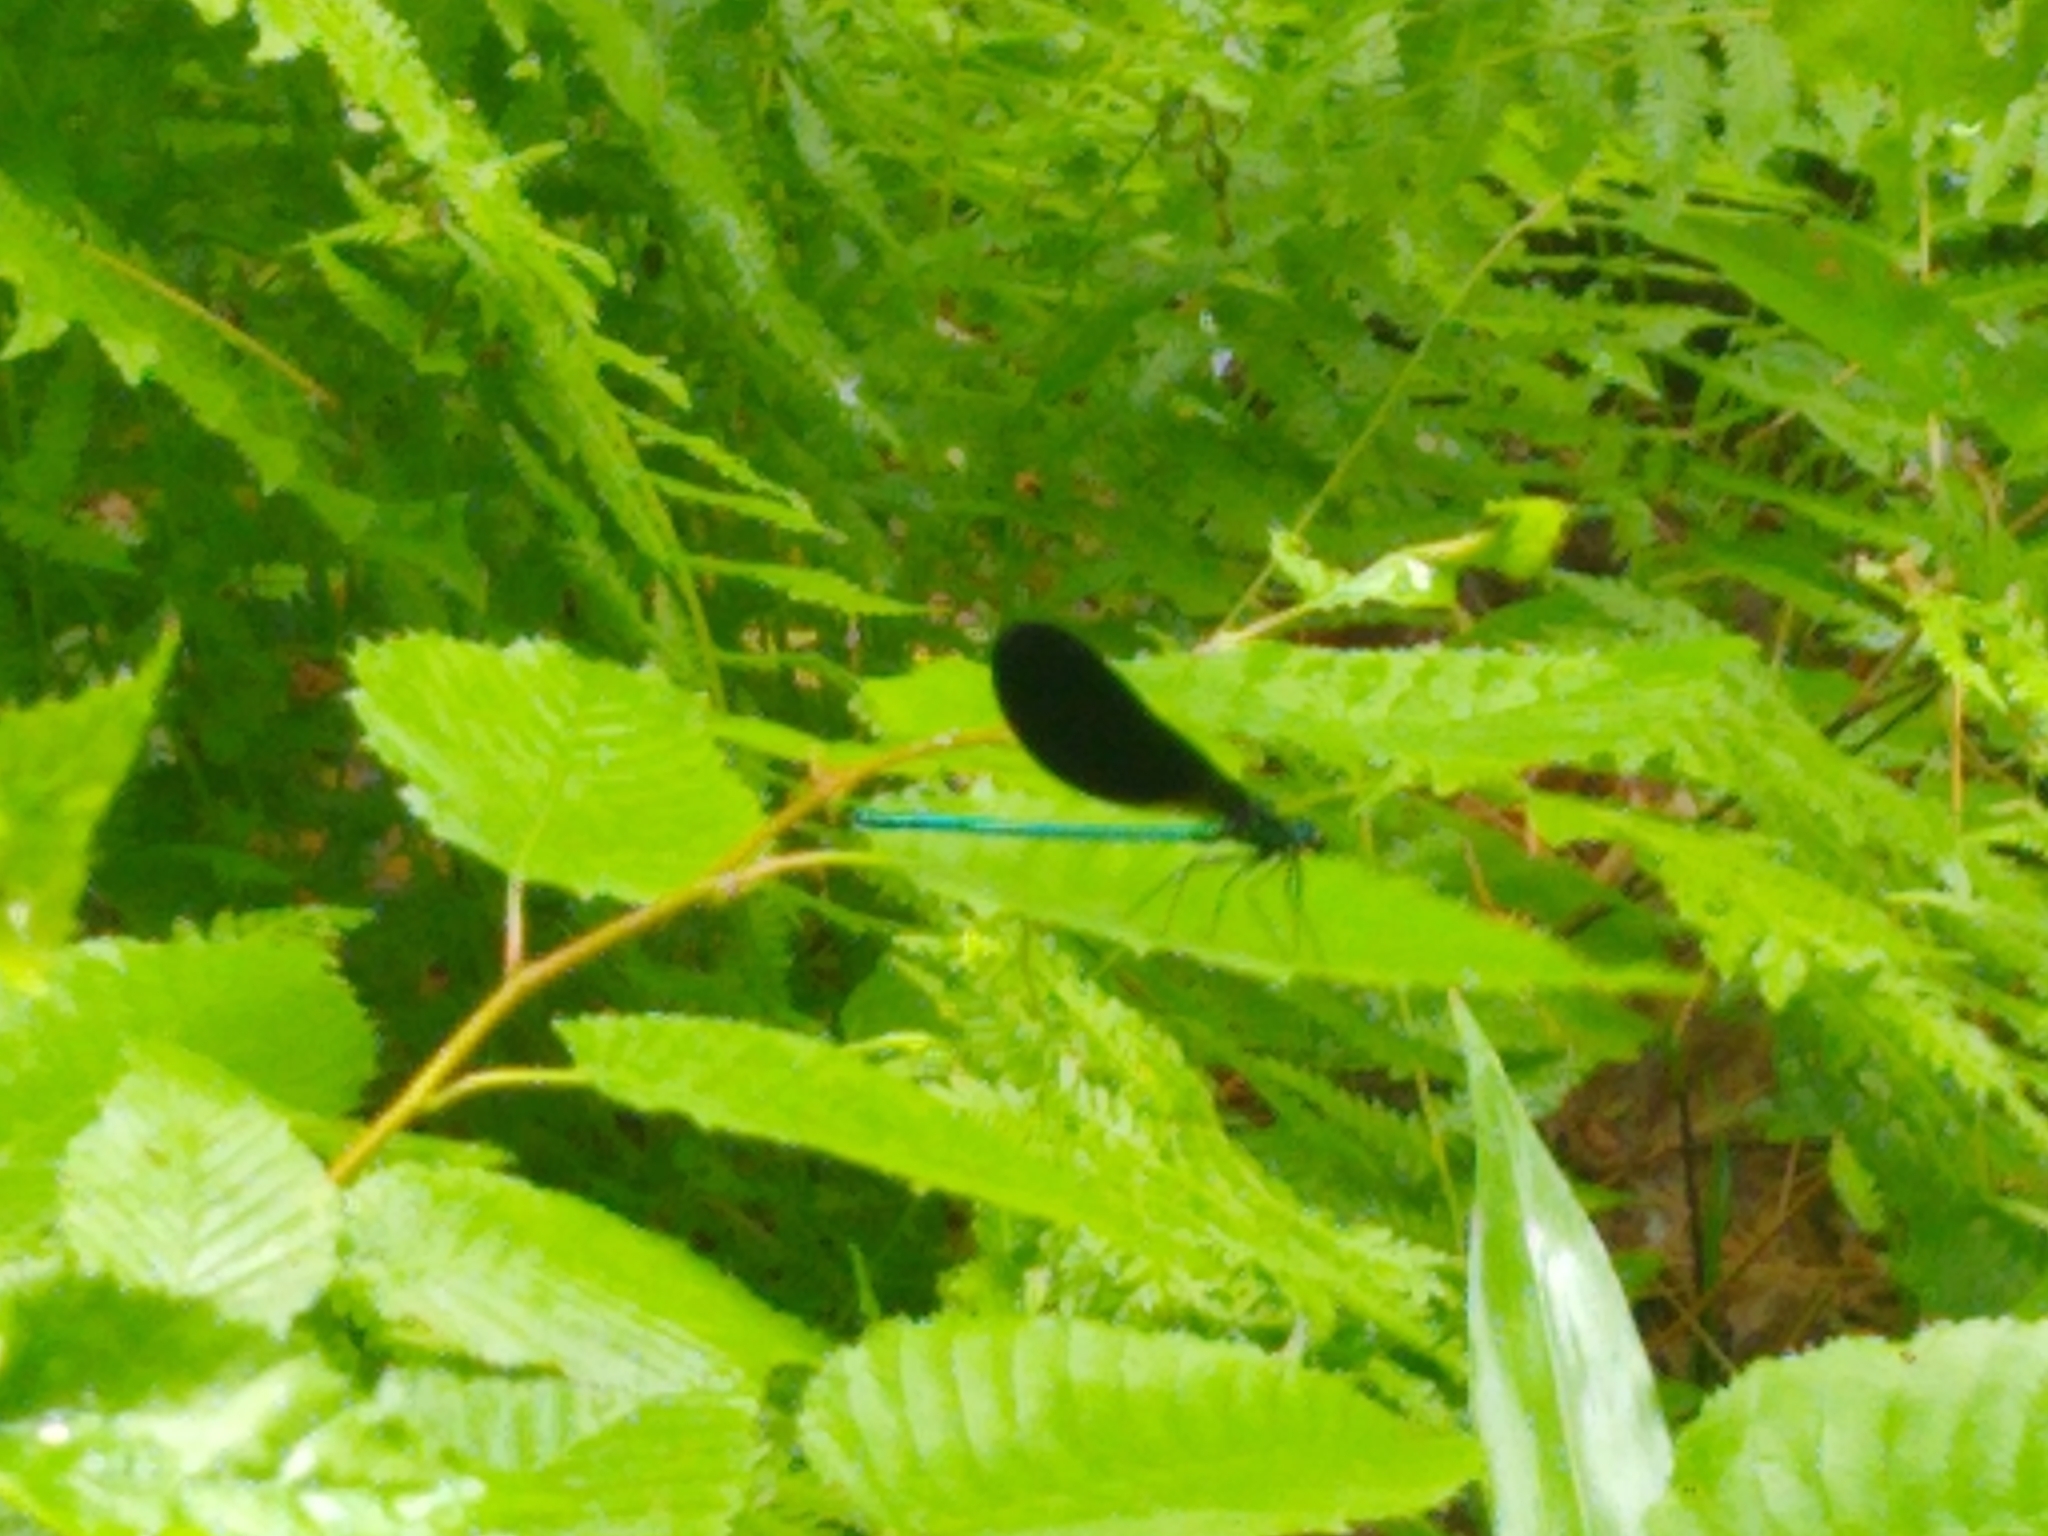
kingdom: Animalia
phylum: Arthropoda
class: Insecta
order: Odonata
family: Calopterygidae
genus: Calopteryx
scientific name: Calopteryx maculata
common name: Ebony jewelwing
